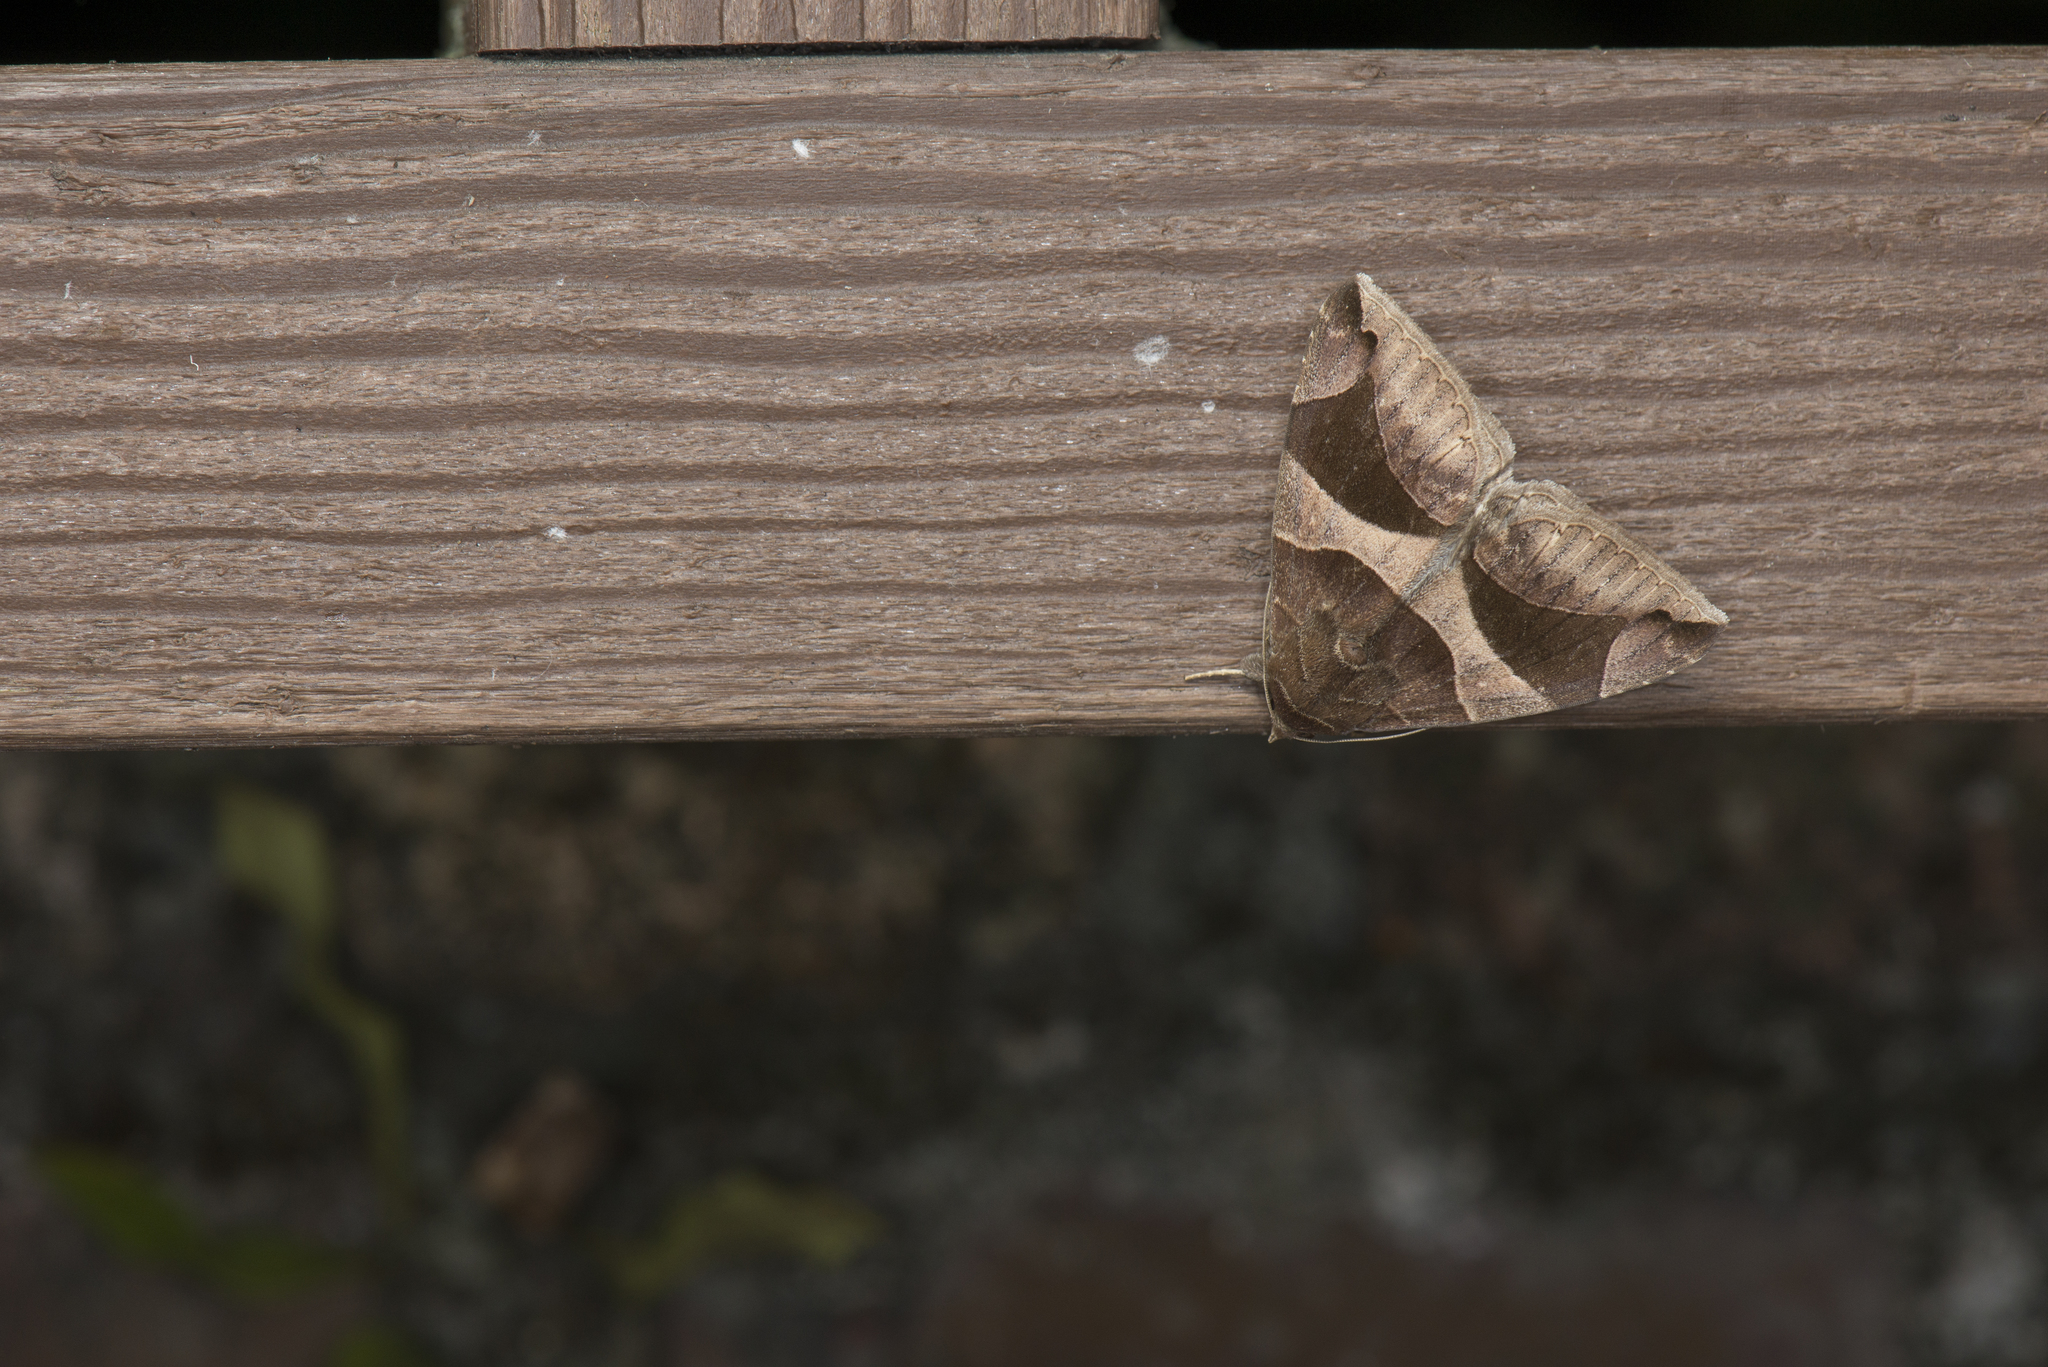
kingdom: Animalia
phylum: Arthropoda
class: Insecta
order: Lepidoptera
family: Erebidae
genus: Bastilla
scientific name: Bastilla arcuata
